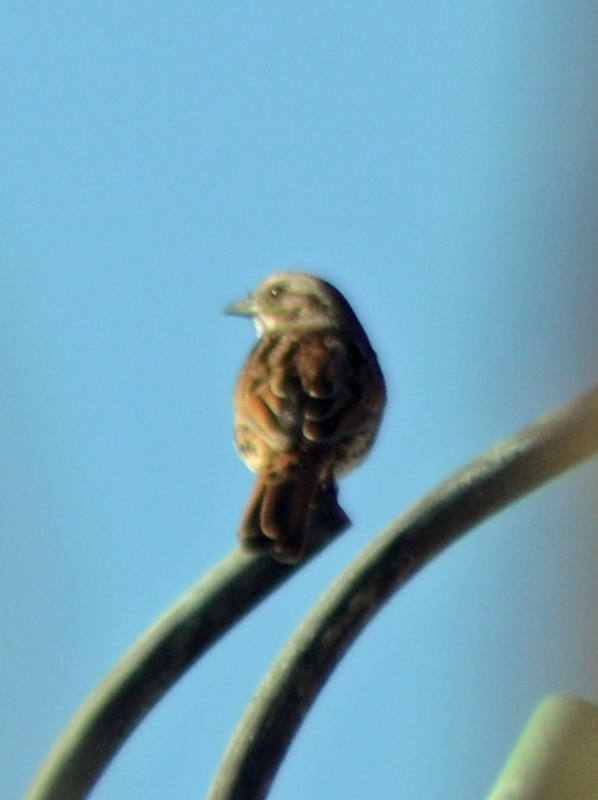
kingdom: Animalia
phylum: Chordata
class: Aves
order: Passeriformes
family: Passerellidae
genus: Melospiza
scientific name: Melospiza melodia
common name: Song sparrow
